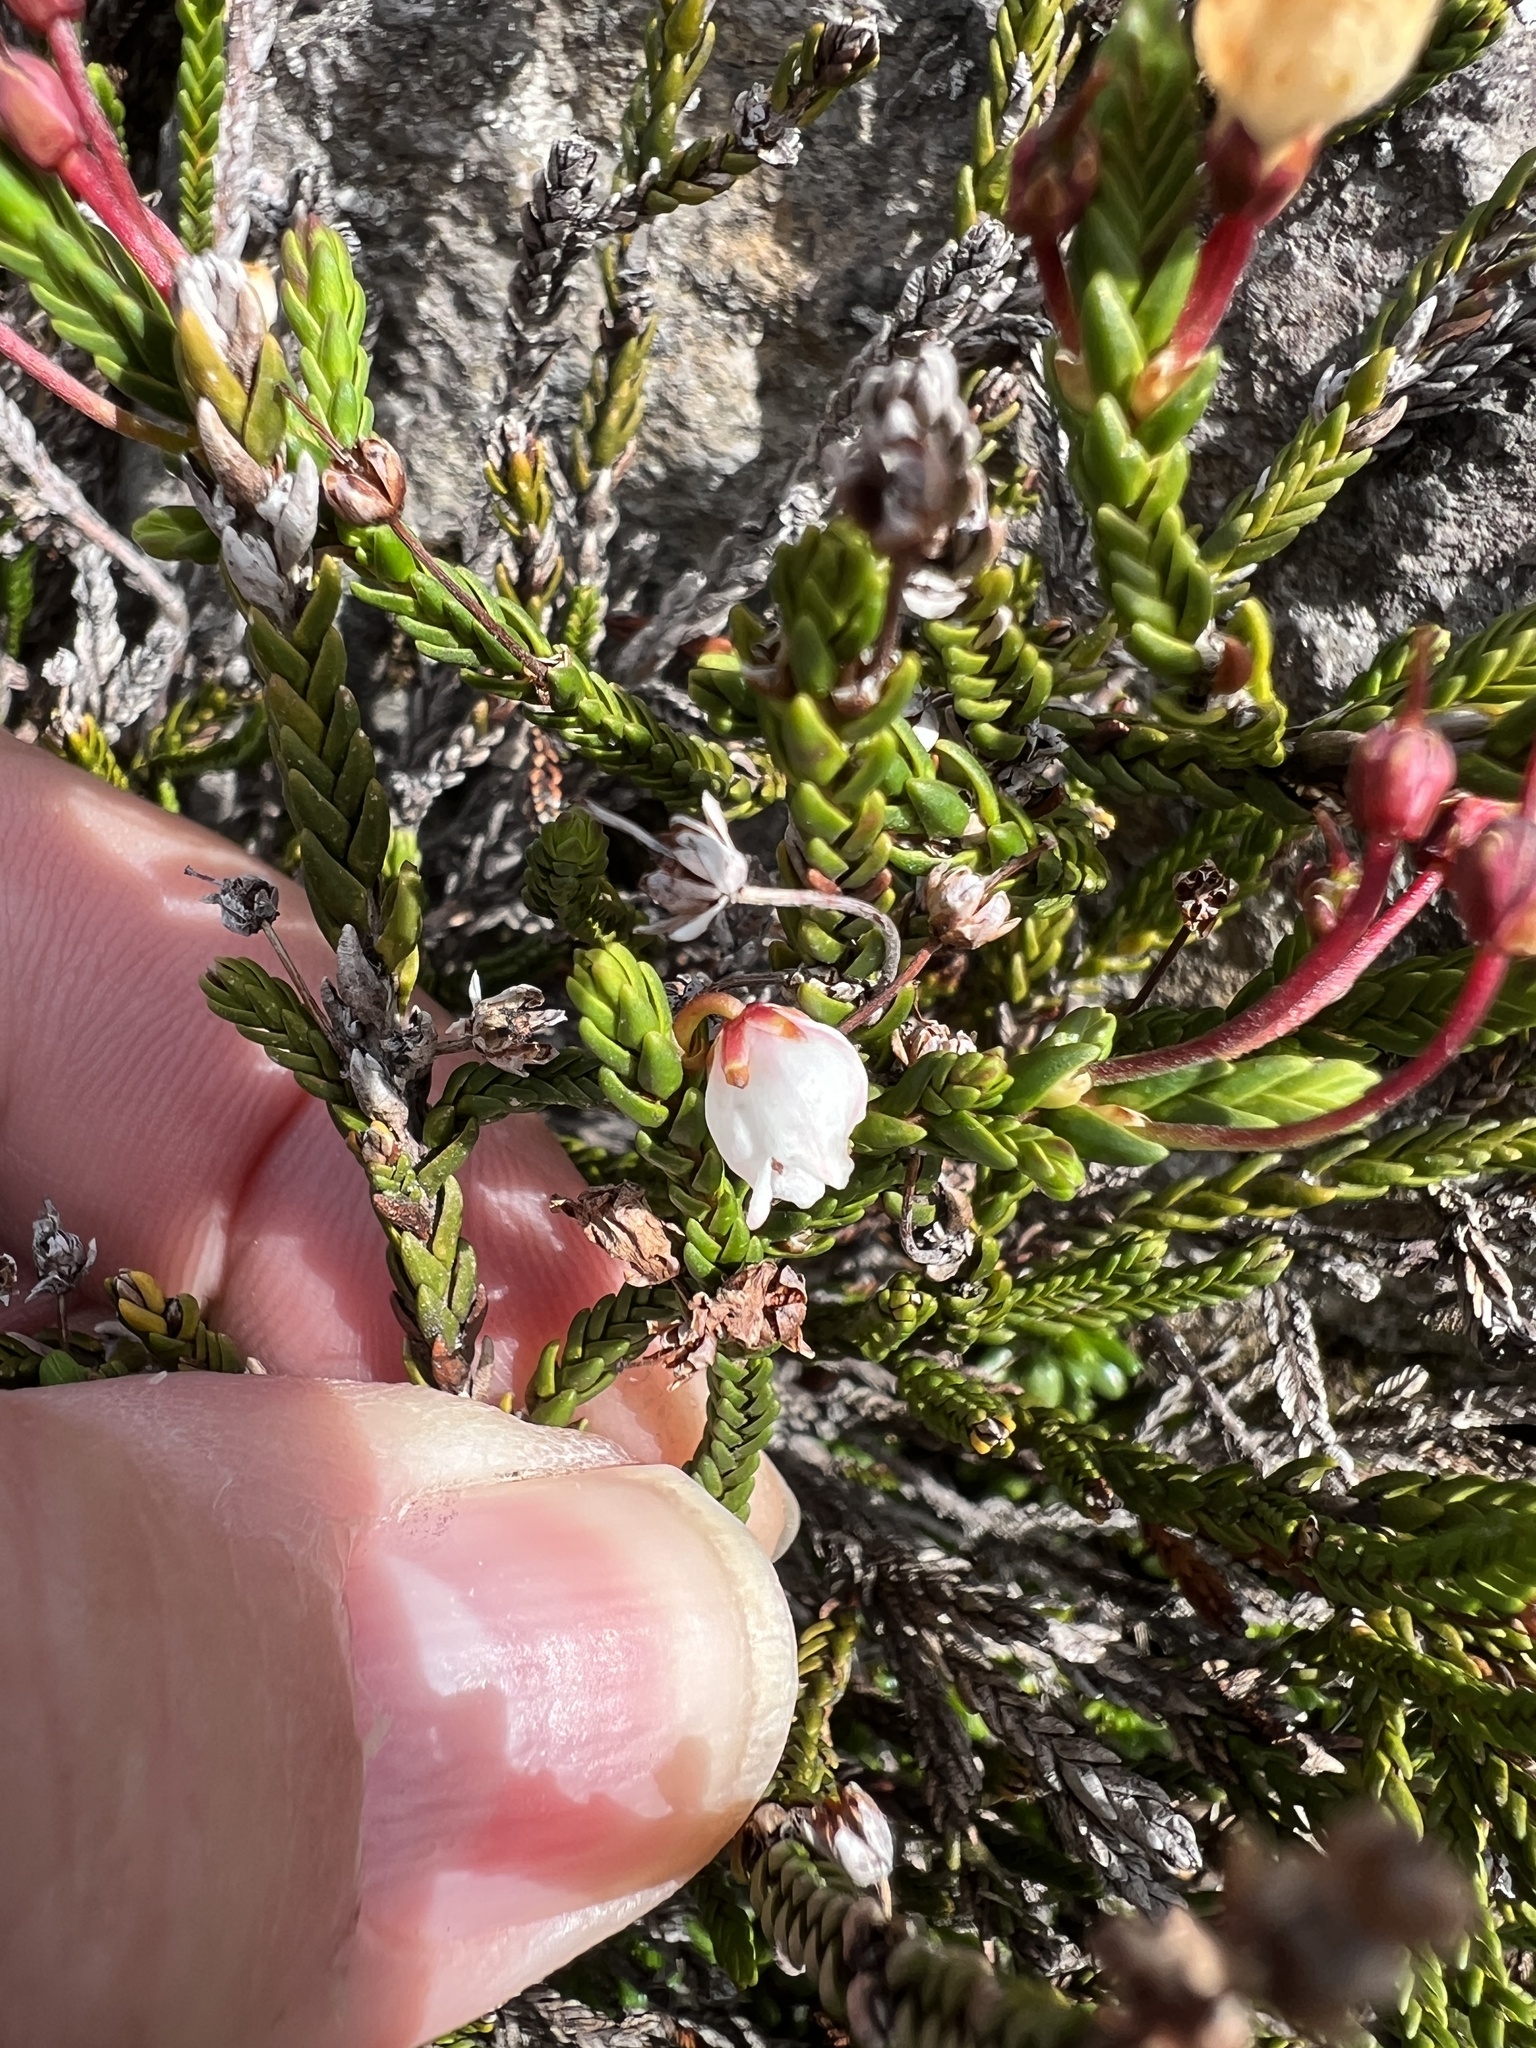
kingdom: Plantae
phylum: Tracheophyta
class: Magnoliopsida
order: Ericales
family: Ericaceae
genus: Cassiope
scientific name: Cassiope mertensiana
